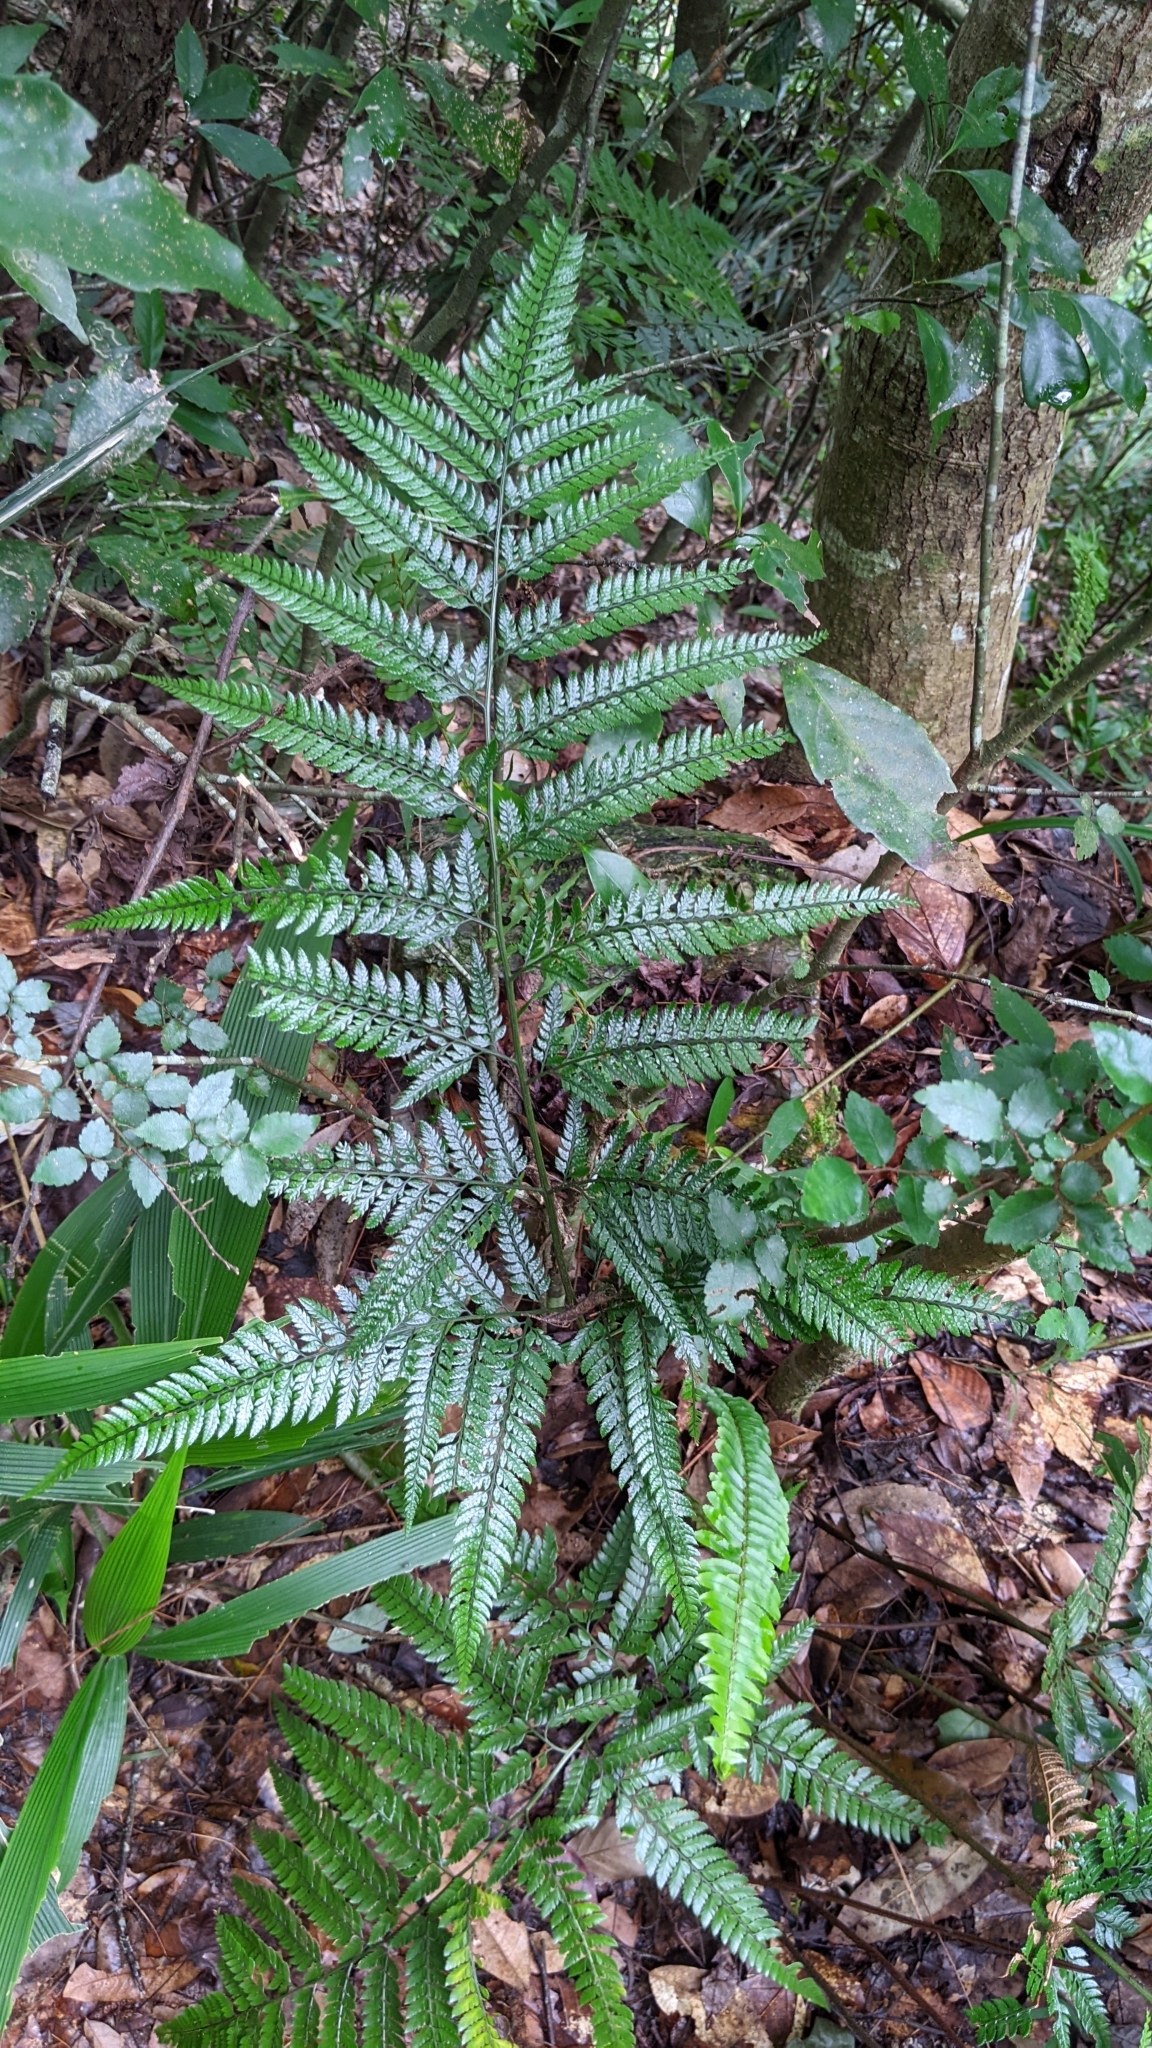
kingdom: Plantae
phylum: Tracheophyta
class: Polypodiopsida
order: Polypodiales
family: Dryopteridaceae
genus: Arachniodes
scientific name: Arachniodes aristata
